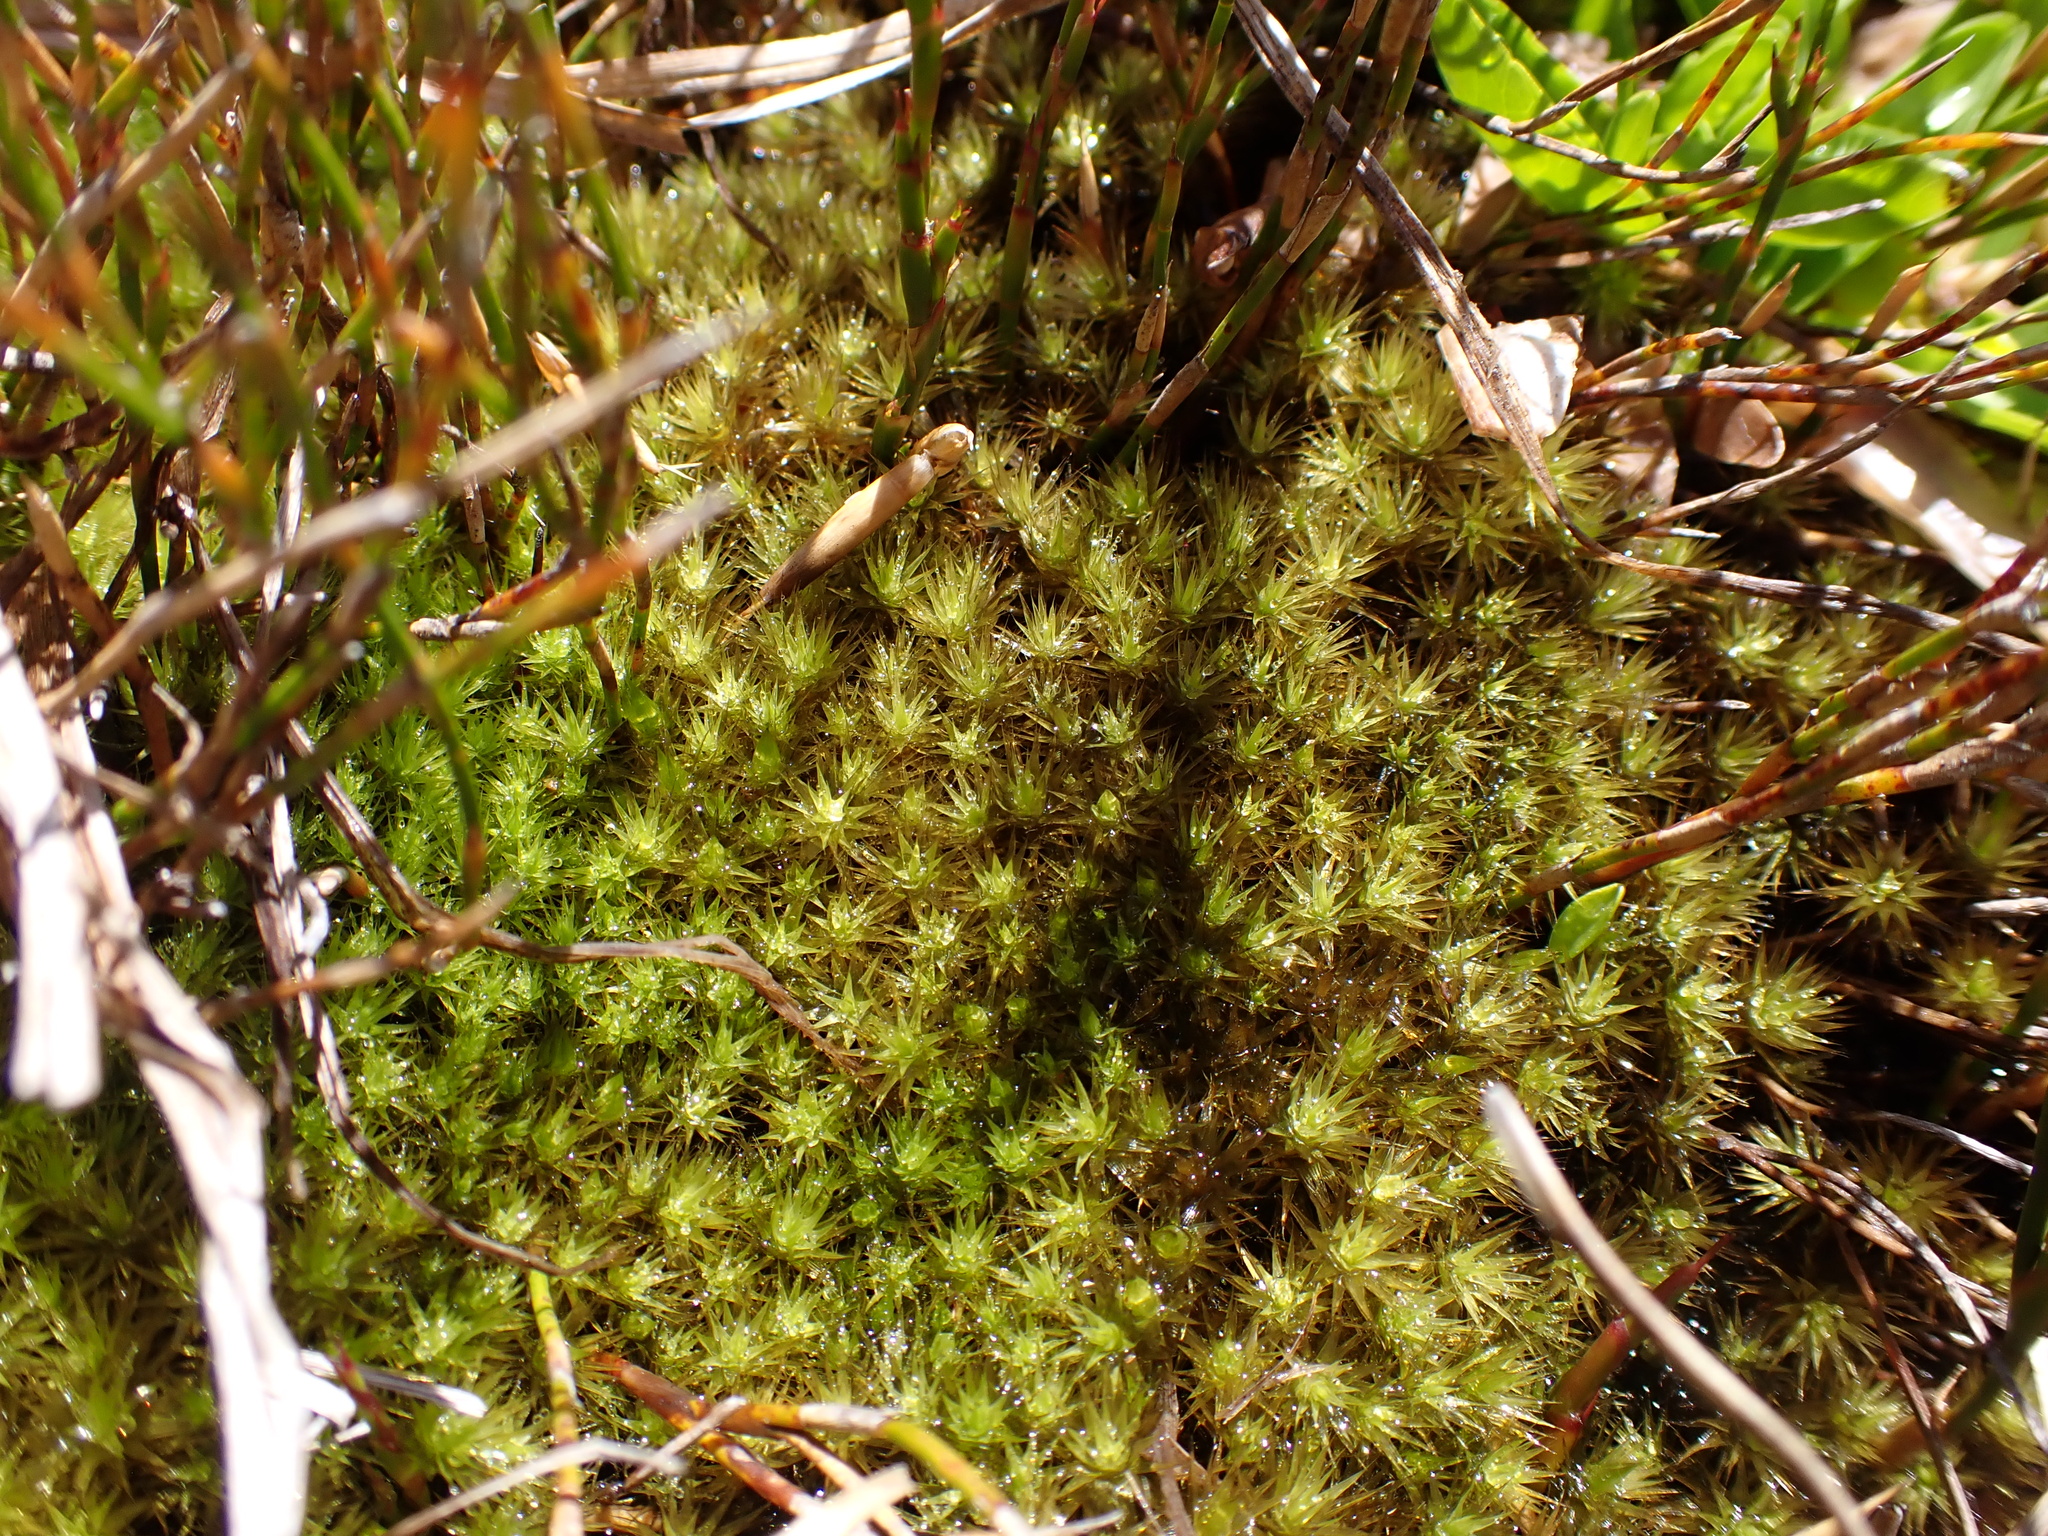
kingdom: Plantae
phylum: Bryophyta
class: Bryopsida
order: Bartramiales
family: Bartramiaceae
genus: Breutelia
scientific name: Breutelia pendula
